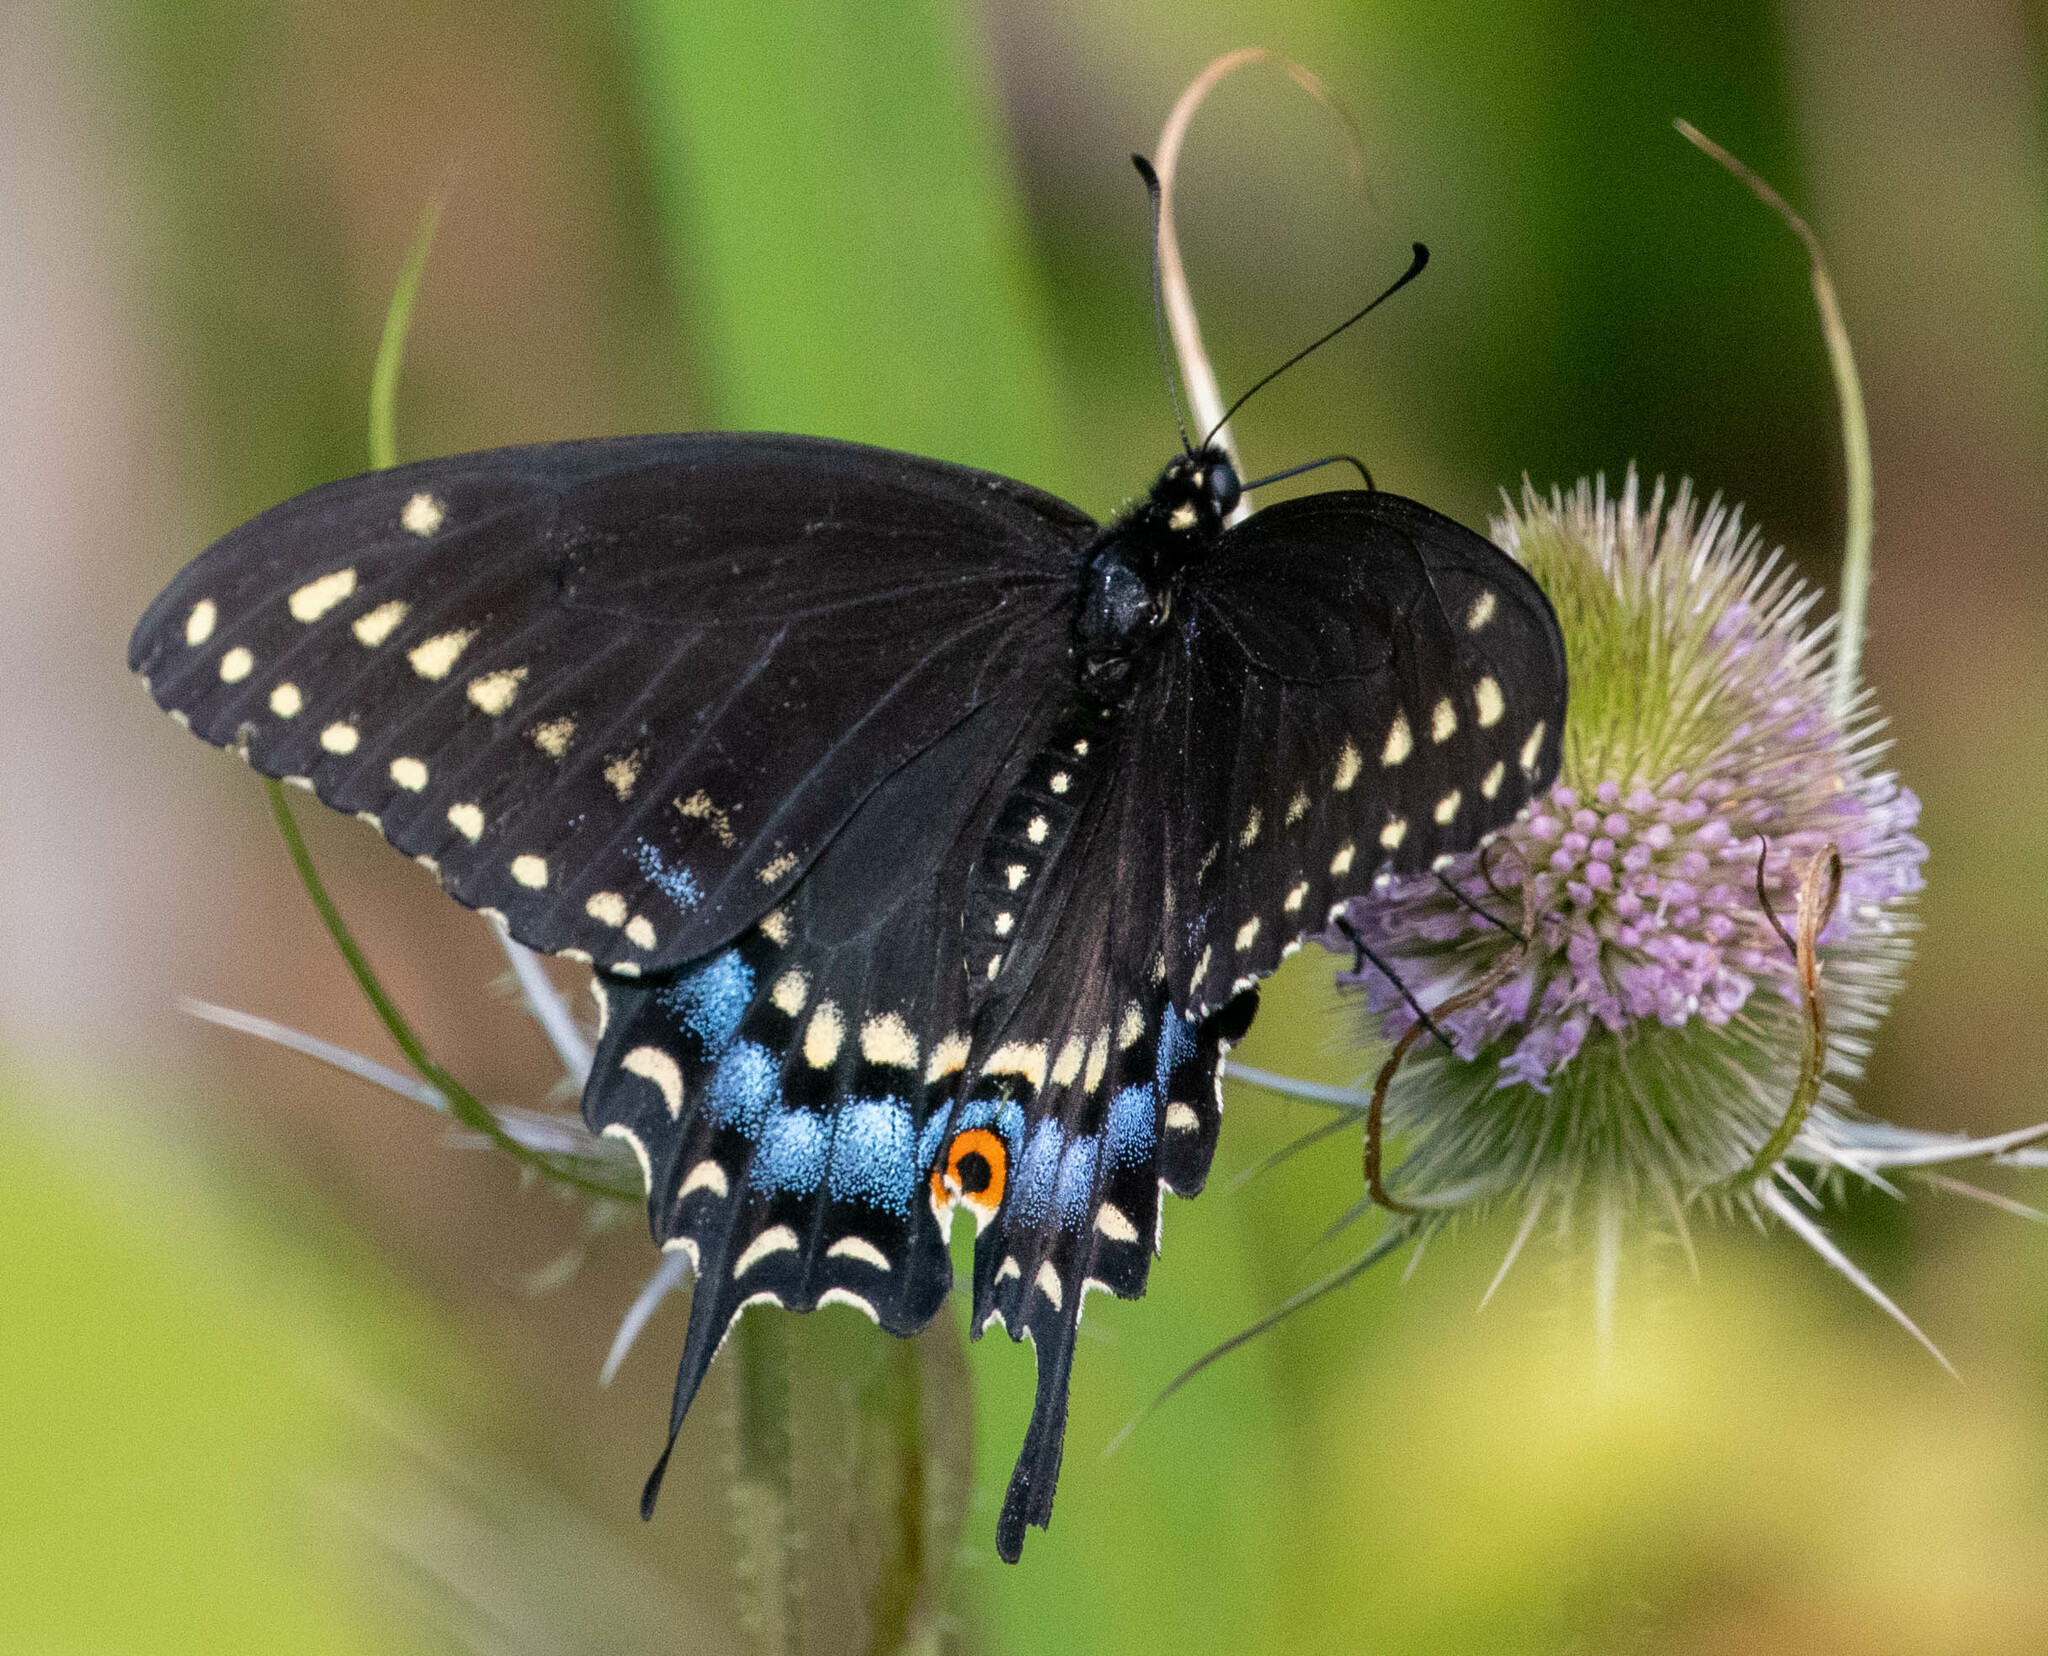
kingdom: Animalia
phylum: Arthropoda
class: Insecta
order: Lepidoptera
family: Papilionidae
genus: Papilio
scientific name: Papilio polyxenes
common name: Black swallowtail
